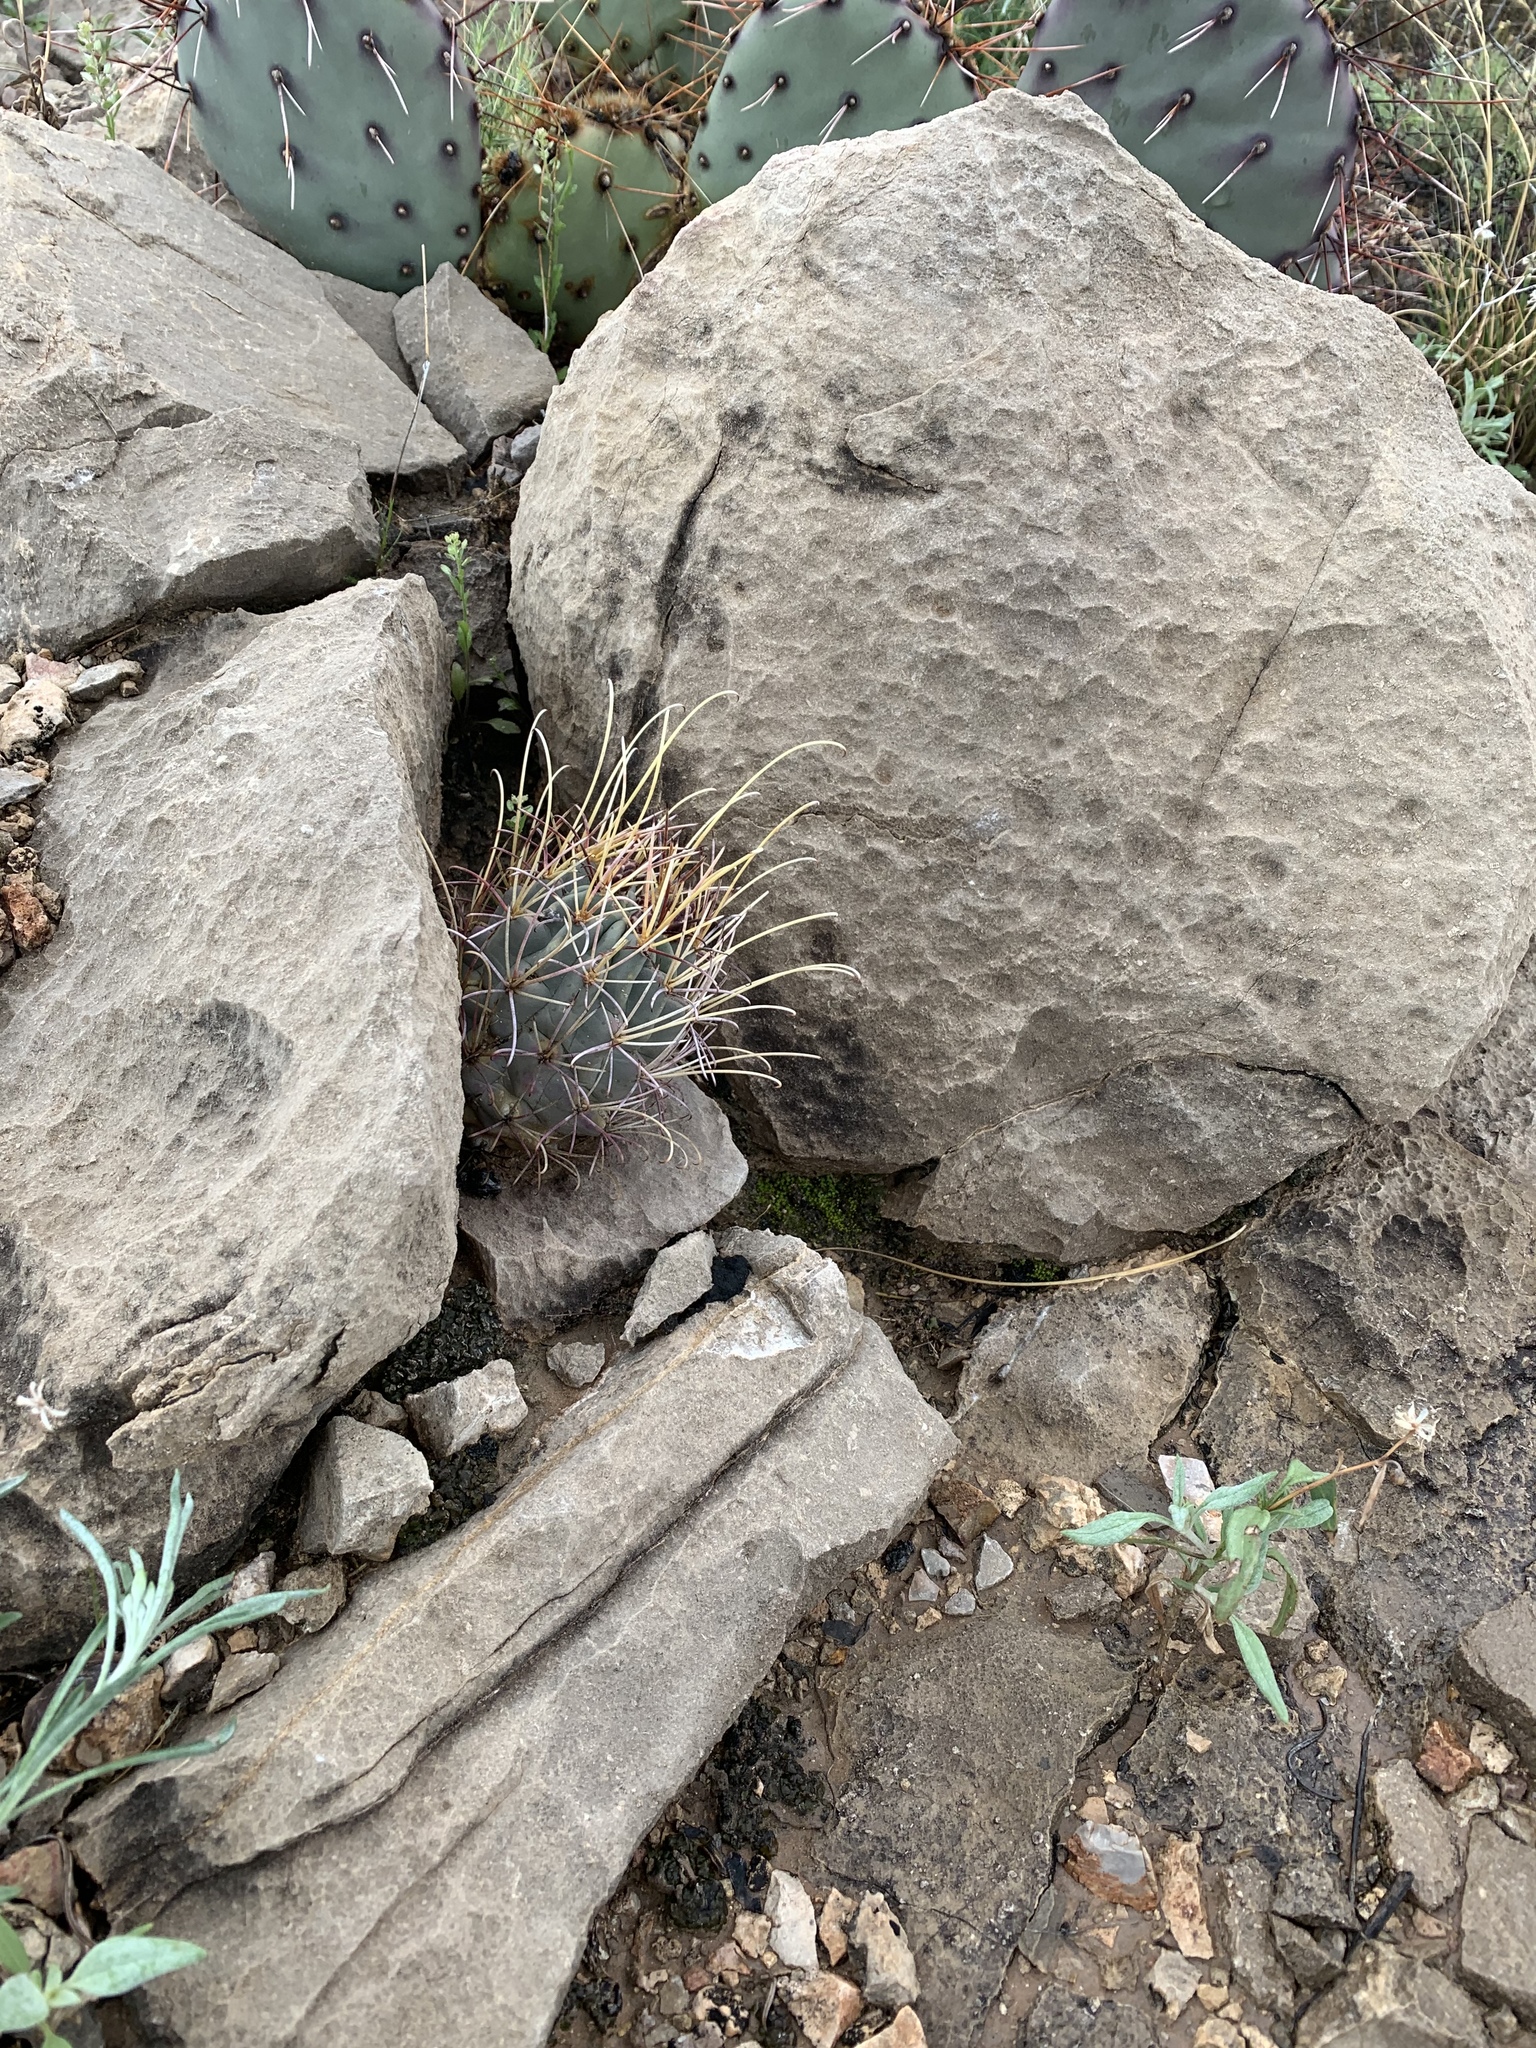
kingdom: Plantae
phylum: Tracheophyta
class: Magnoliopsida
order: Caryophyllales
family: Cactaceae
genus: Ferocactus
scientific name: Ferocactus uncinatus
